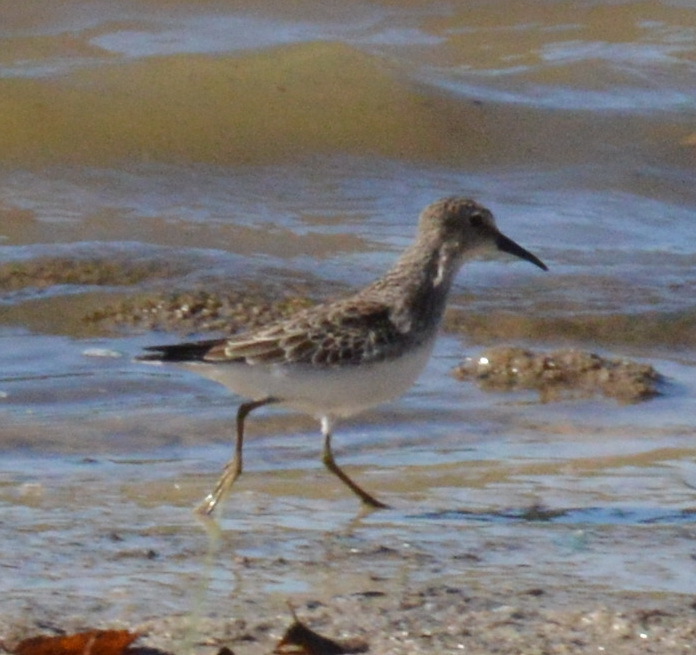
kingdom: Animalia
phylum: Chordata
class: Aves
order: Charadriiformes
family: Scolopacidae
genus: Calidris
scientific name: Calidris minutilla
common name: Least sandpiper
